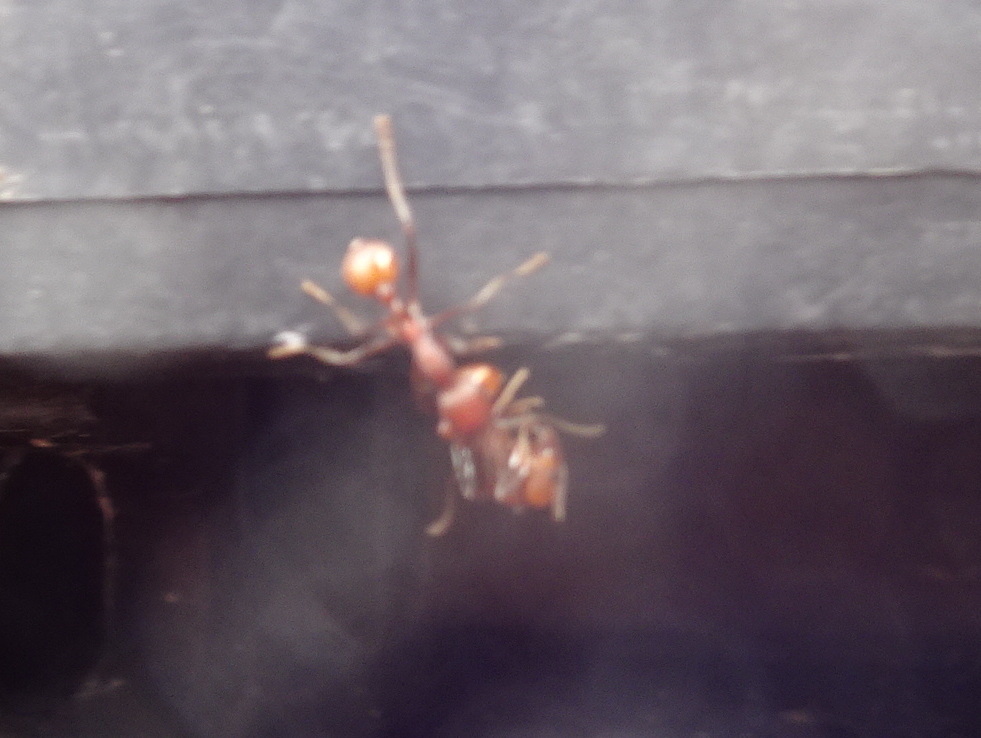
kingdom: Animalia
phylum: Arthropoda
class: Insecta
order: Hymenoptera
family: Formicidae
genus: Aphaenogaster
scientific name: Aphaenogaster tennesseensis
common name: Tennessee thread-waisted ant
